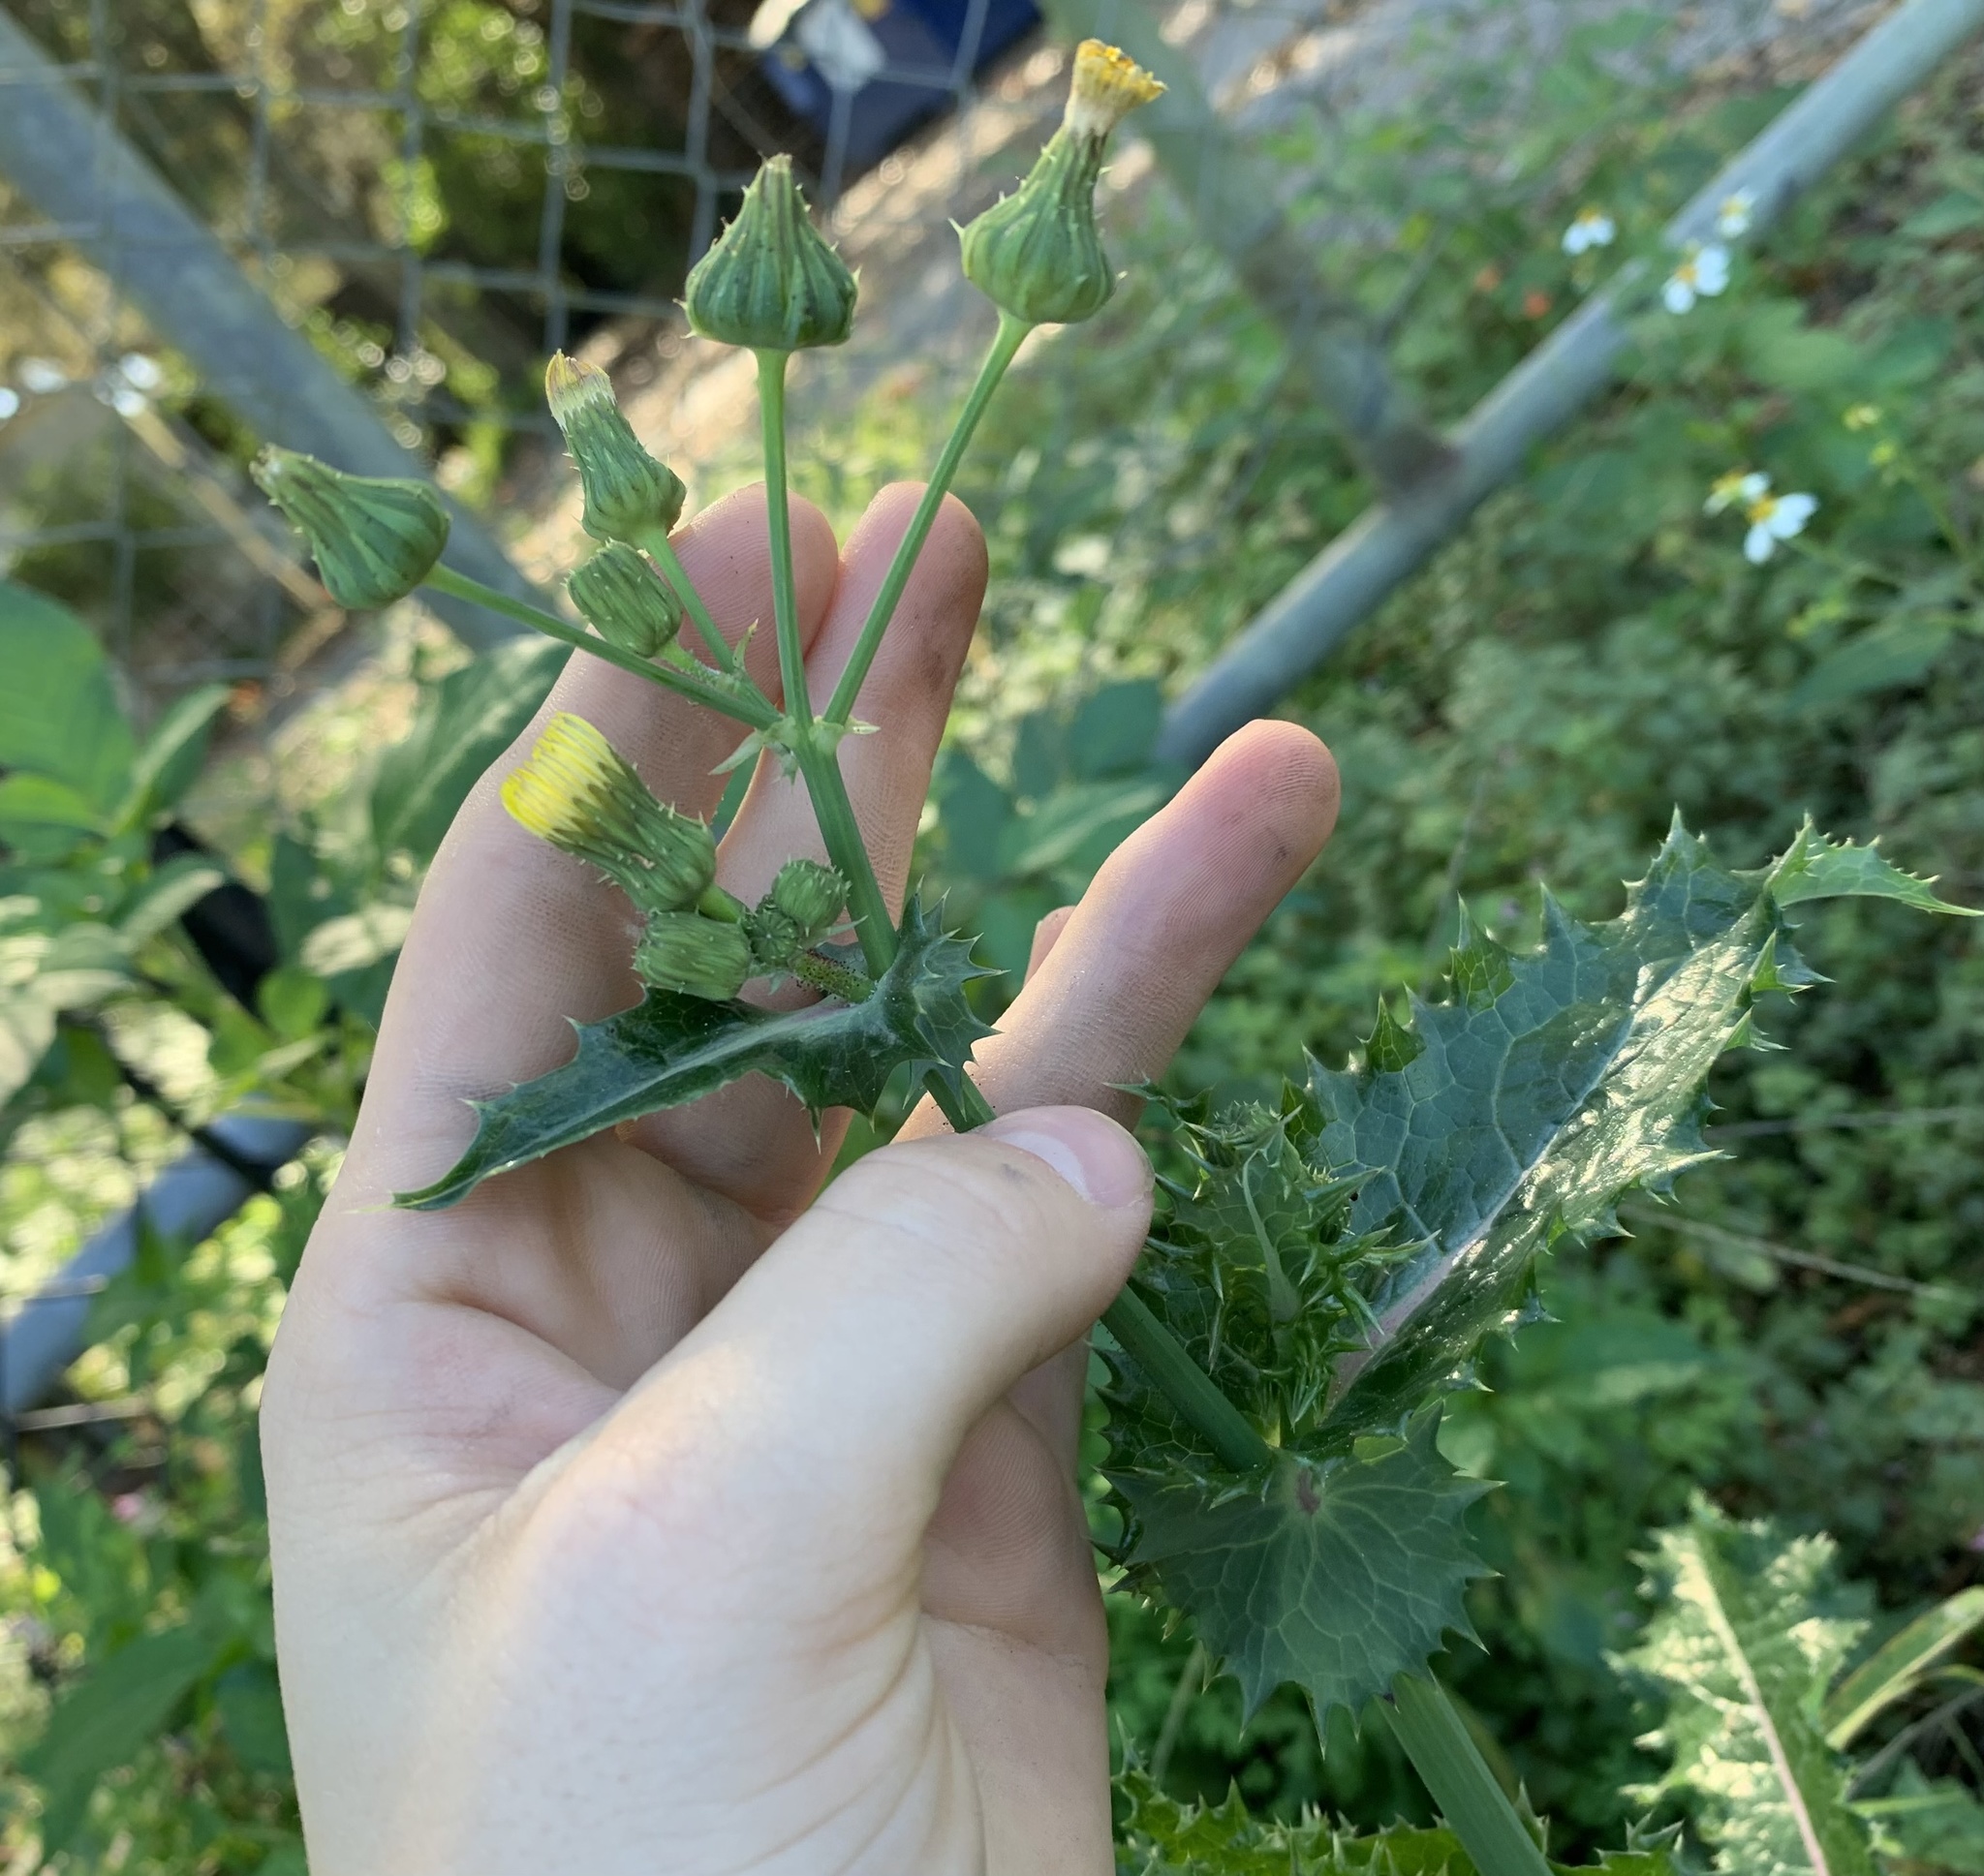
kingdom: Plantae
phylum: Tracheophyta
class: Magnoliopsida
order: Asterales
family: Asteraceae
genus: Sonchus
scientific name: Sonchus asper
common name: Prickly sow-thistle
